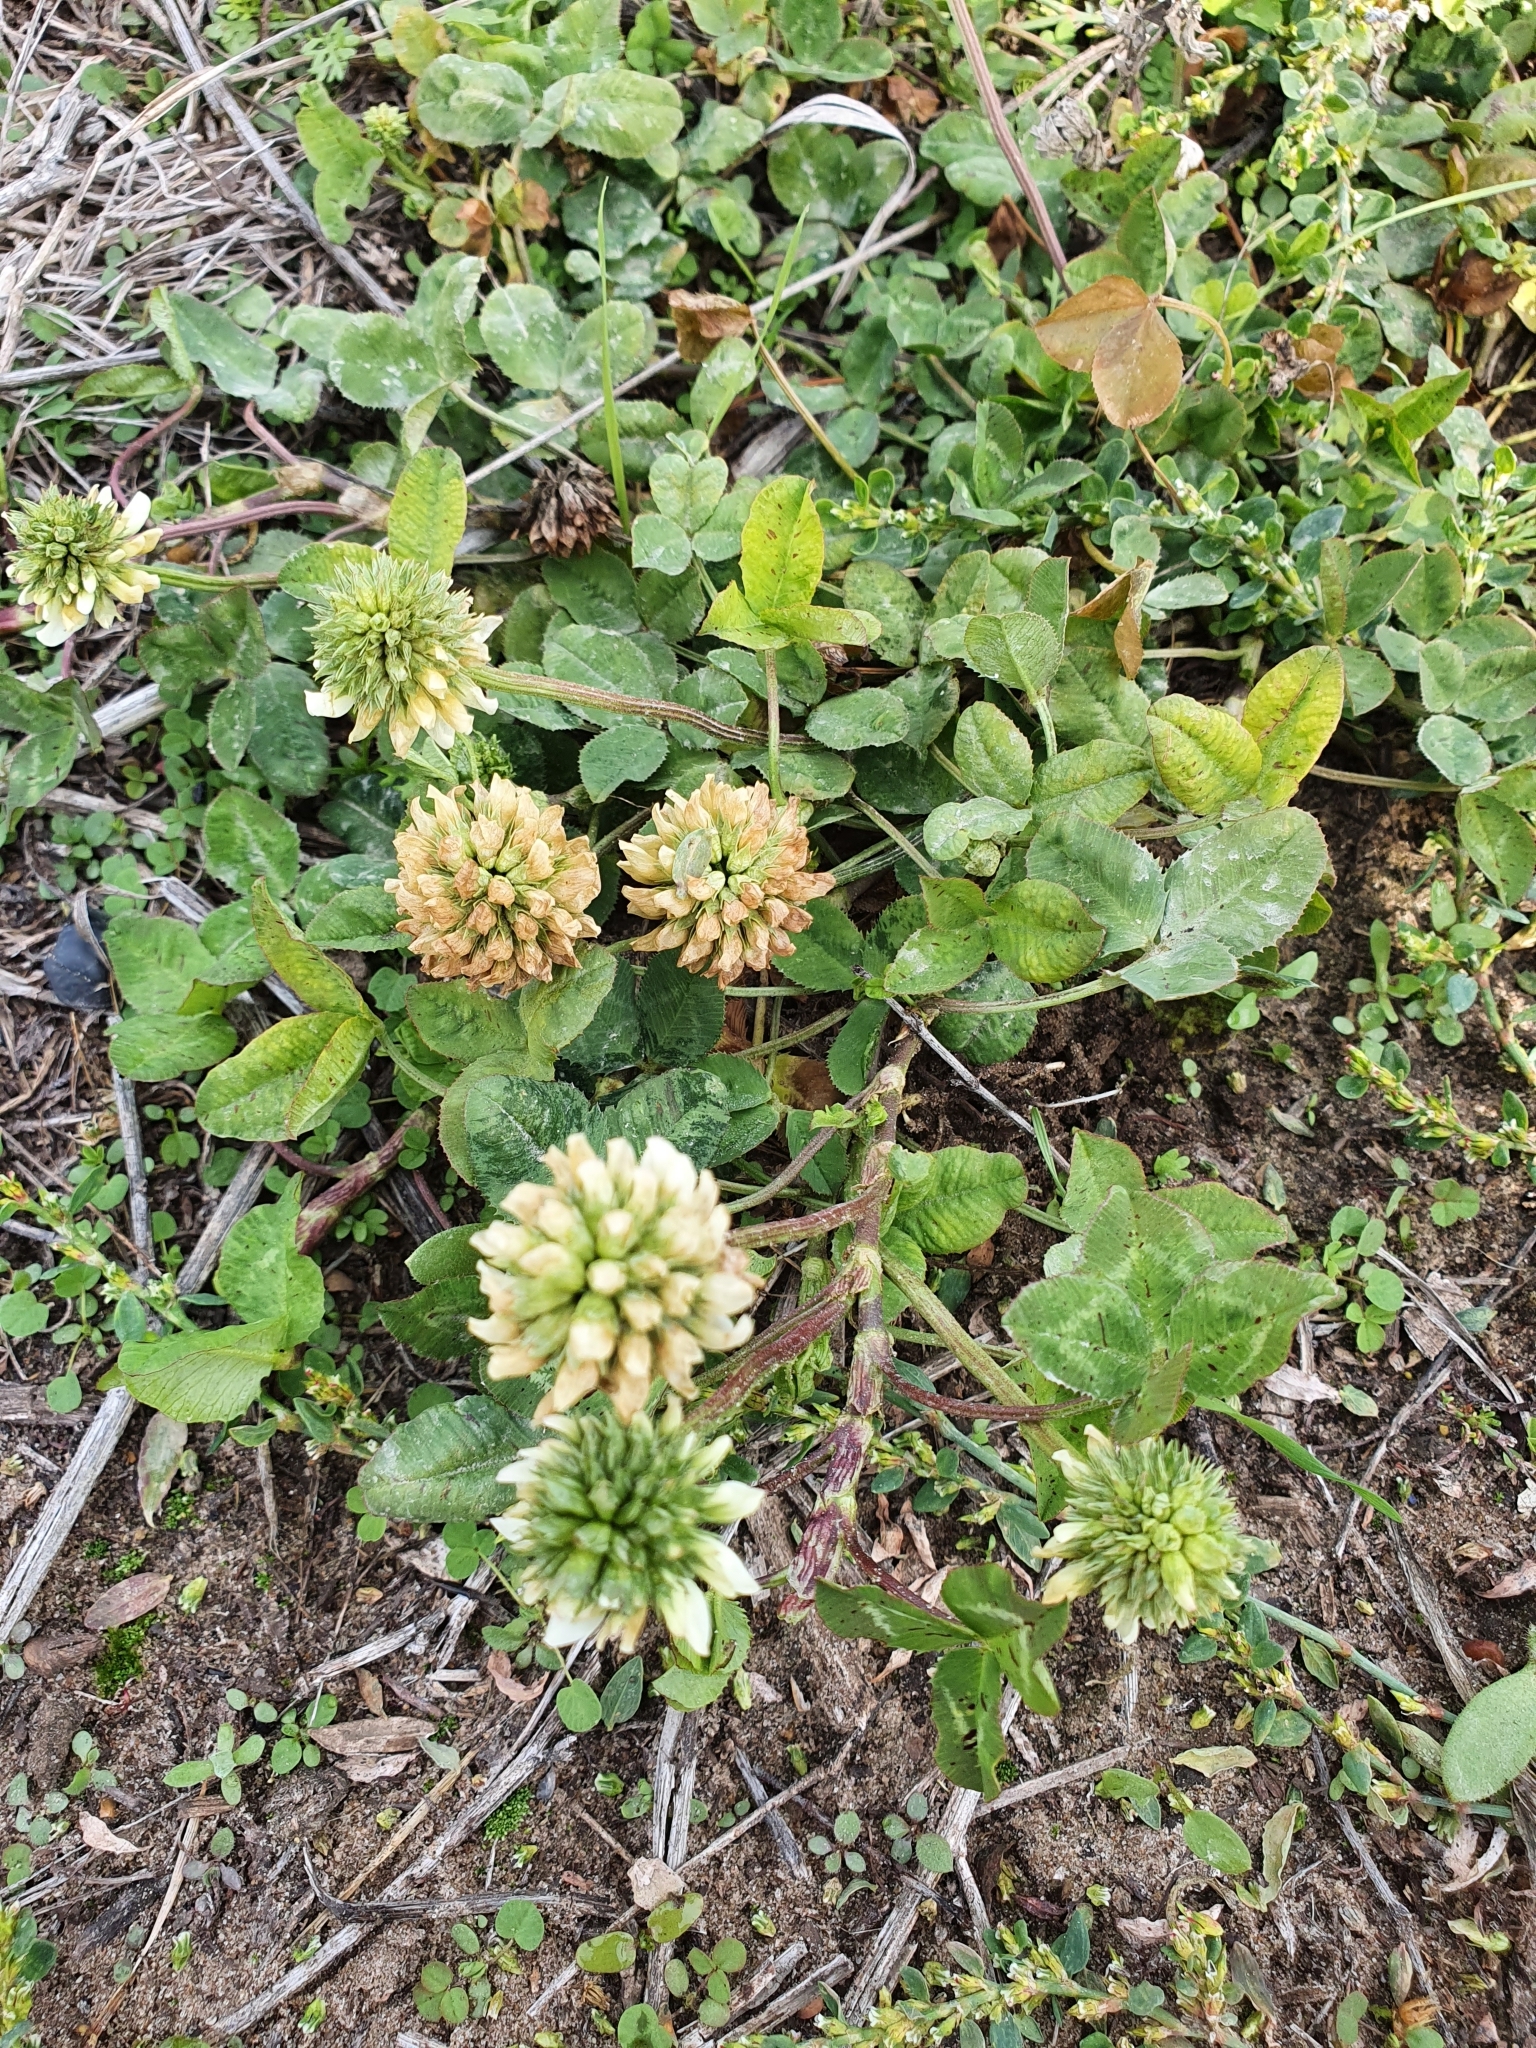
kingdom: Plantae
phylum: Tracheophyta
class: Magnoliopsida
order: Fabales
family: Fabaceae
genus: Trifolium
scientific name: Trifolium repens
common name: White clover
